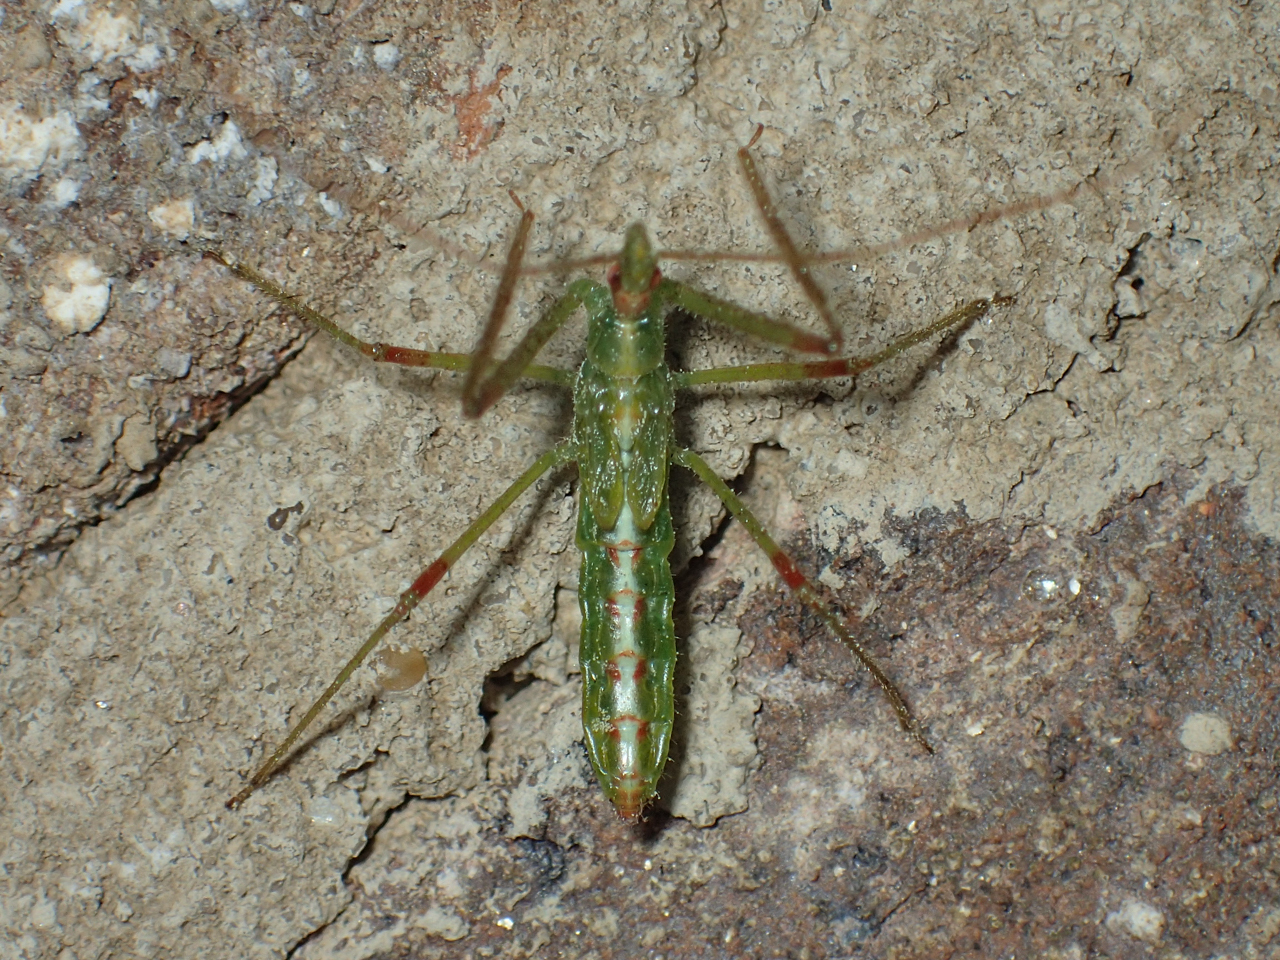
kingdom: Animalia
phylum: Arthropoda
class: Insecta
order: Hemiptera
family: Reduviidae
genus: Zelus
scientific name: Zelus luridus
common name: Pale green assassin bug
